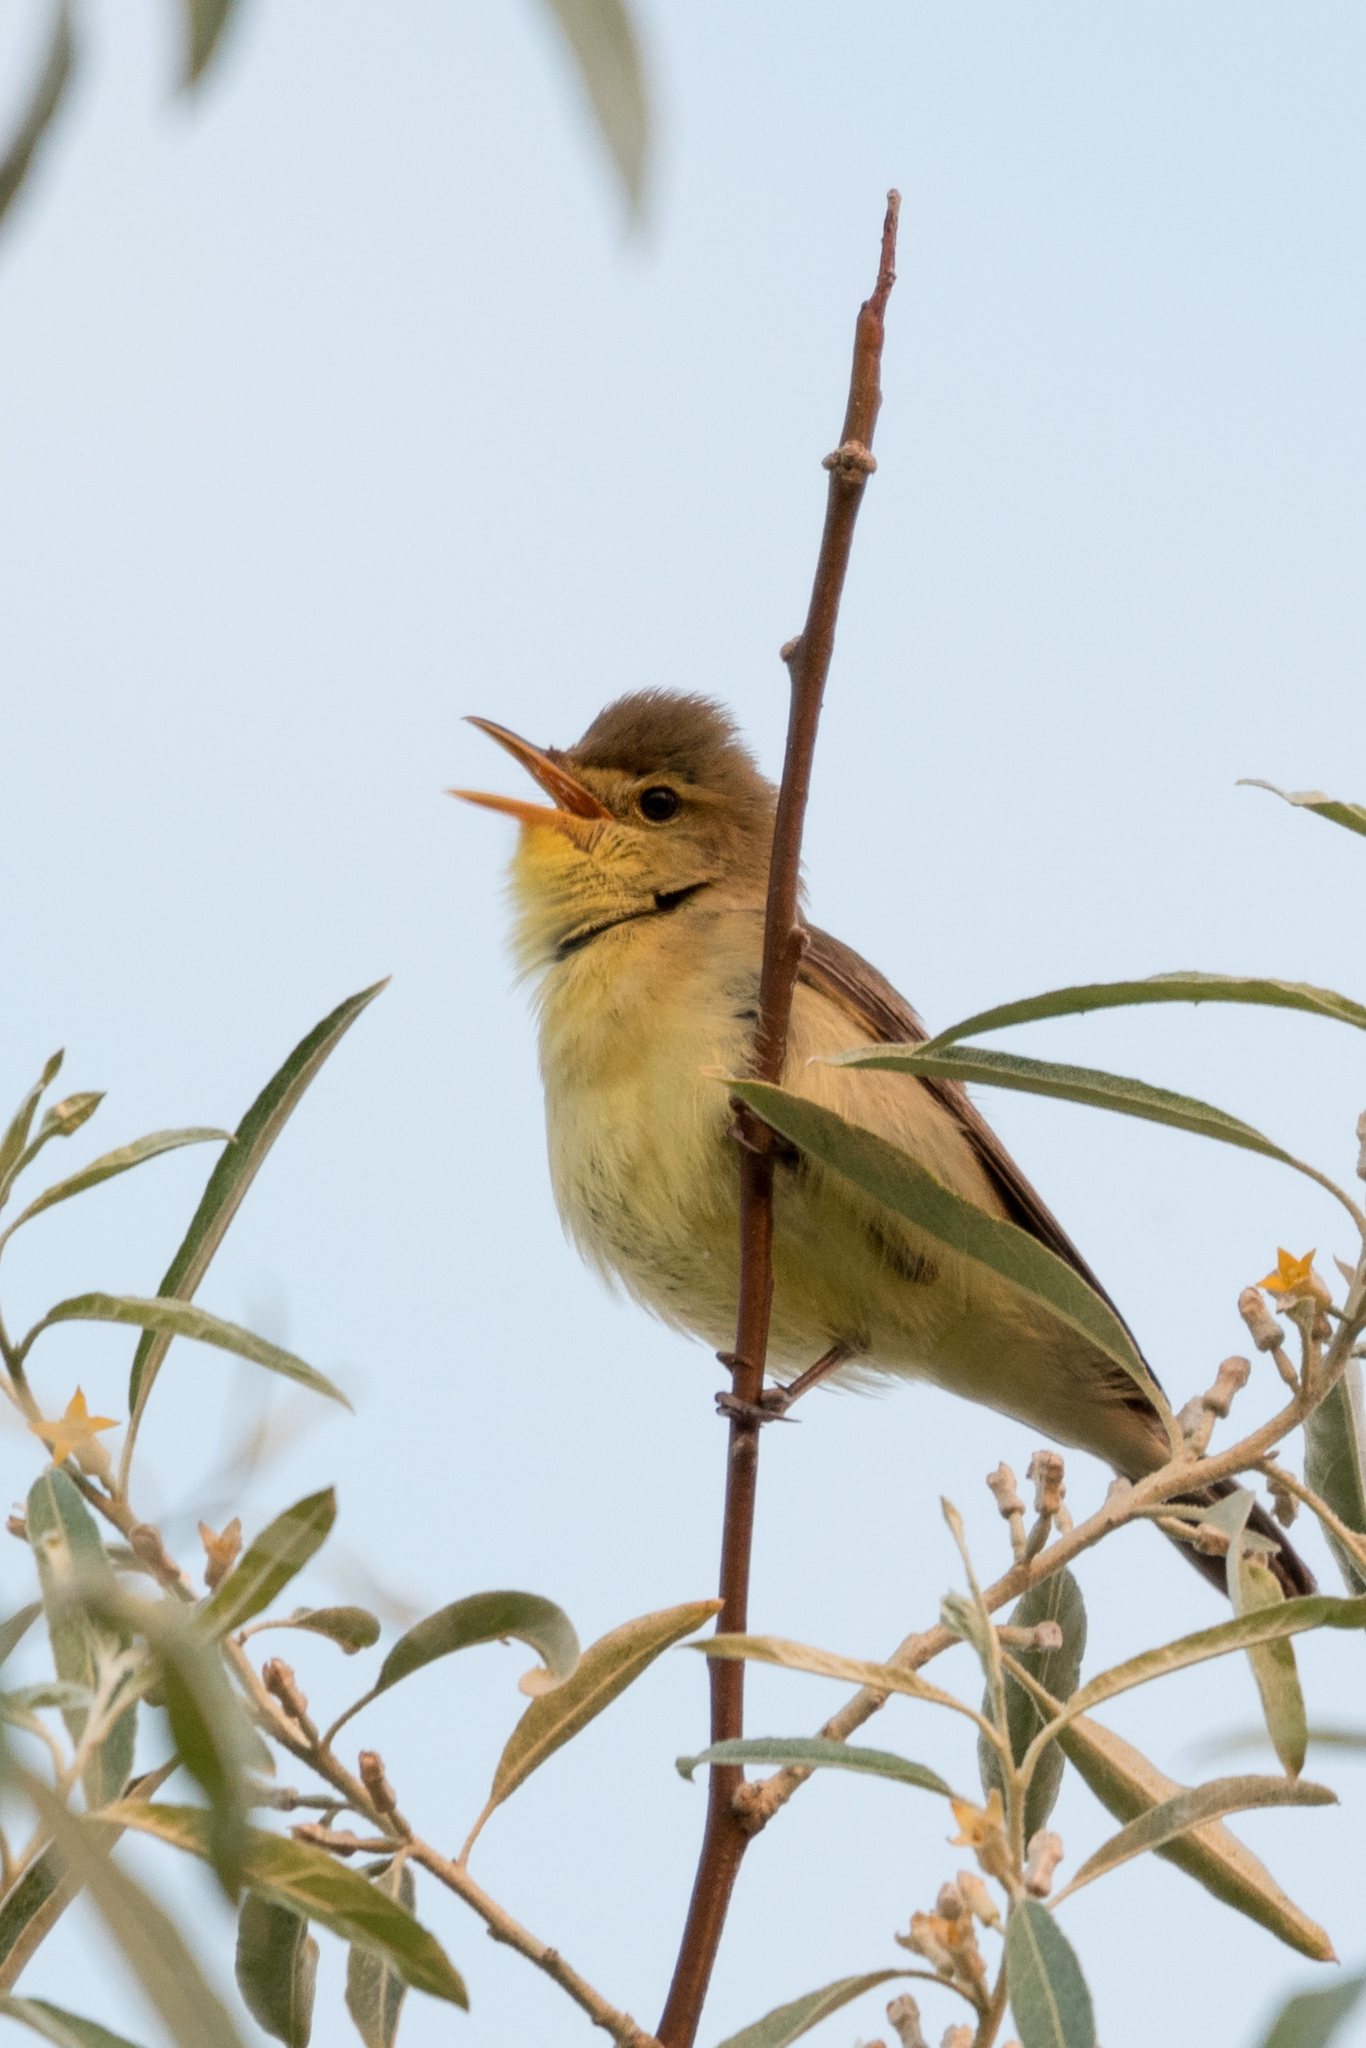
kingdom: Animalia
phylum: Chordata
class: Aves
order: Passeriformes
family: Acrocephalidae
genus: Hippolais
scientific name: Hippolais polyglotta
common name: Melodious warbler
